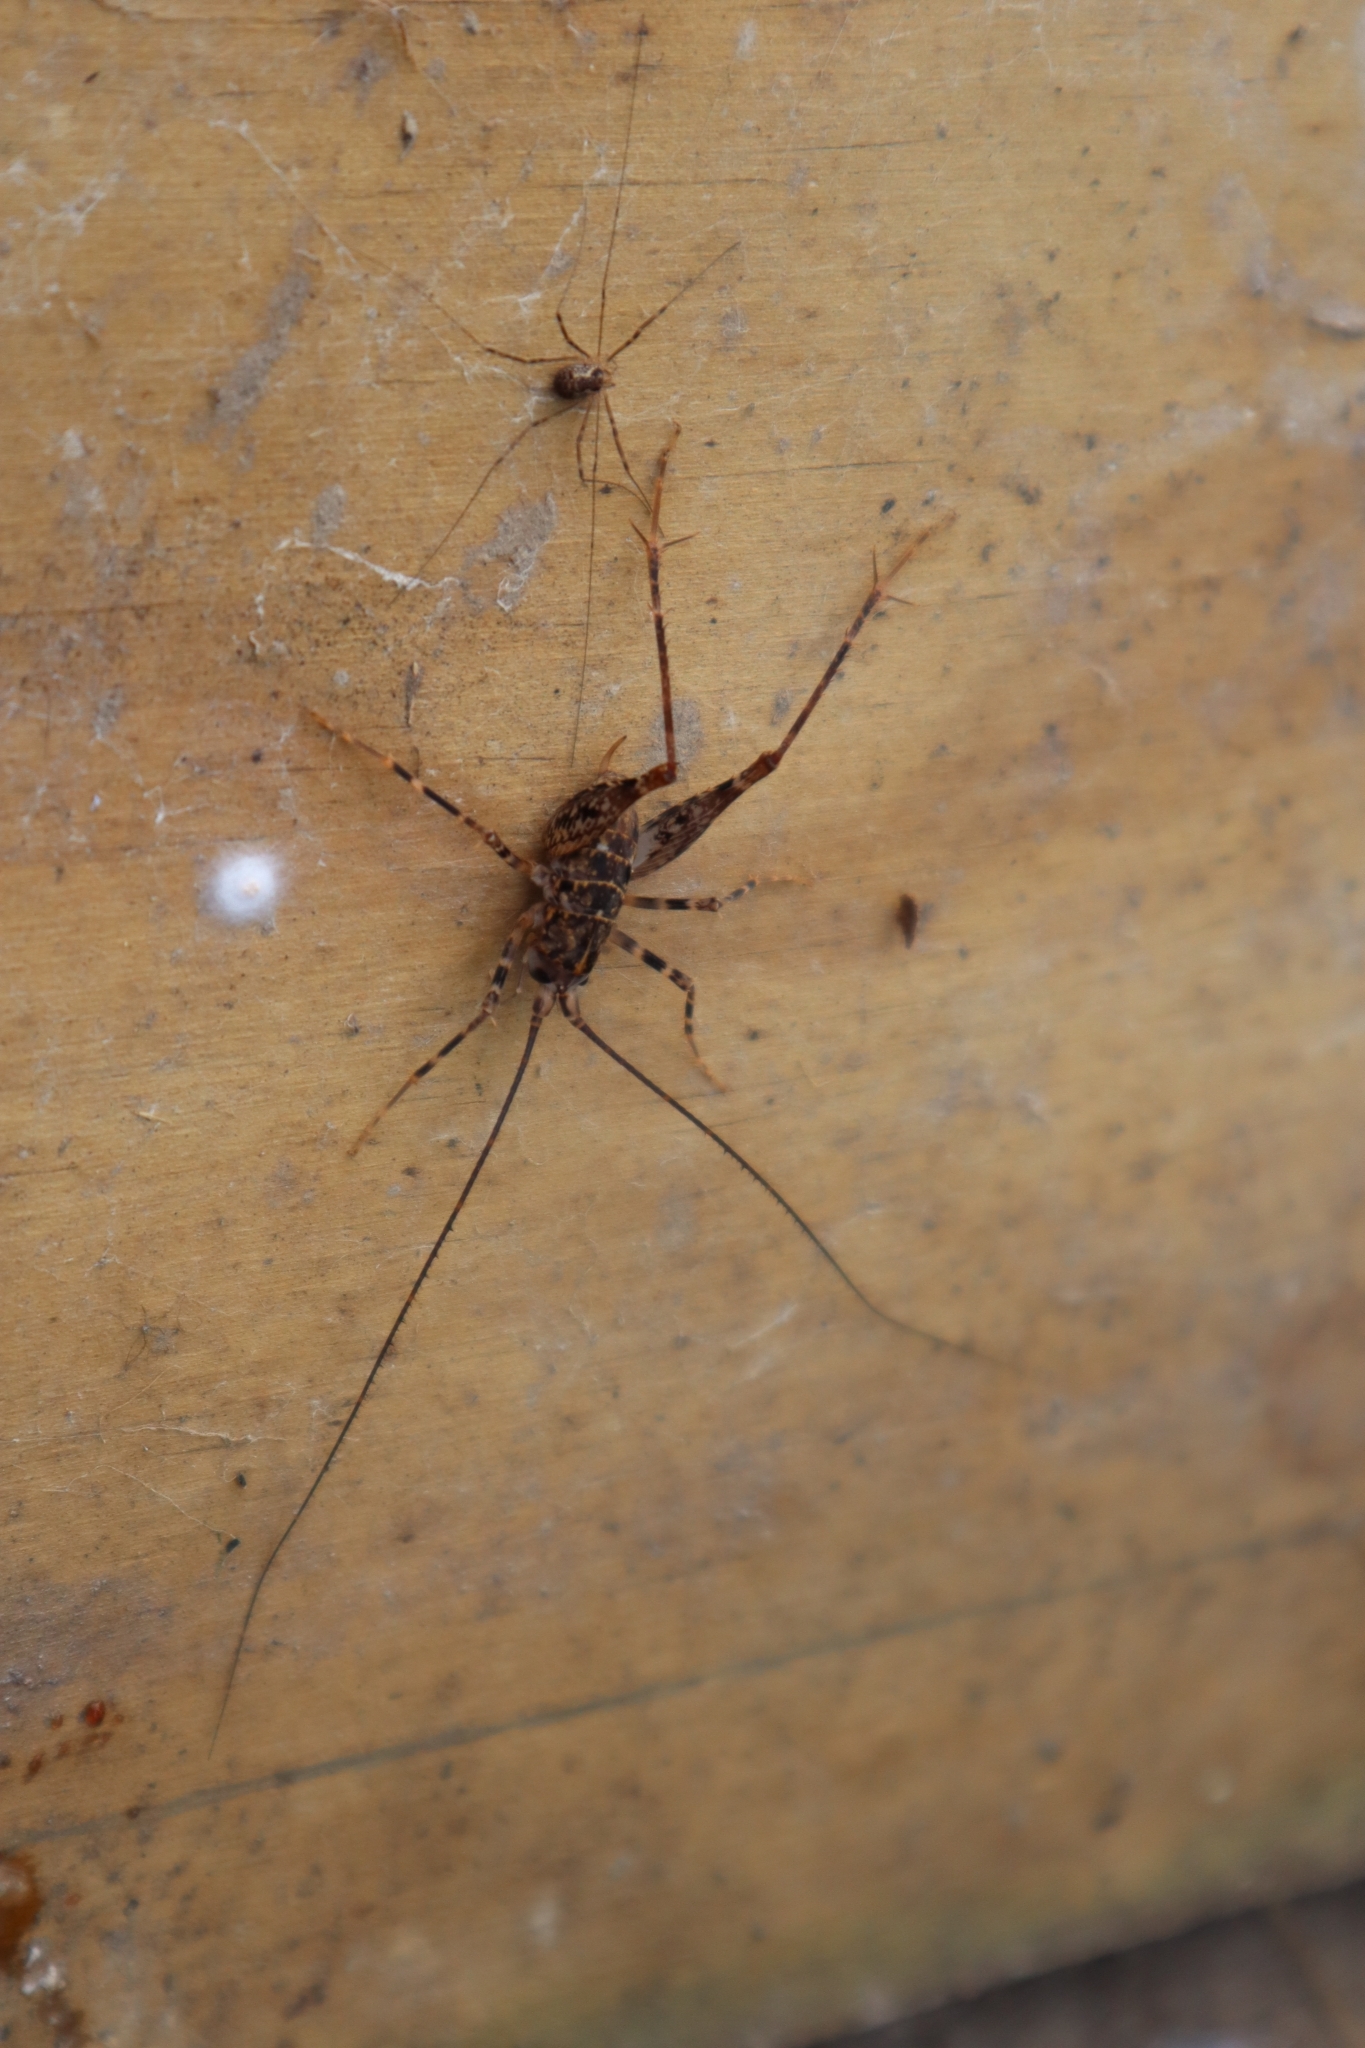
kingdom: Animalia
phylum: Arthropoda
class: Insecta
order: Orthoptera
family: Rhaphidophoridae
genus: Pleioplectron
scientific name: Pleioplectron triquetrum
